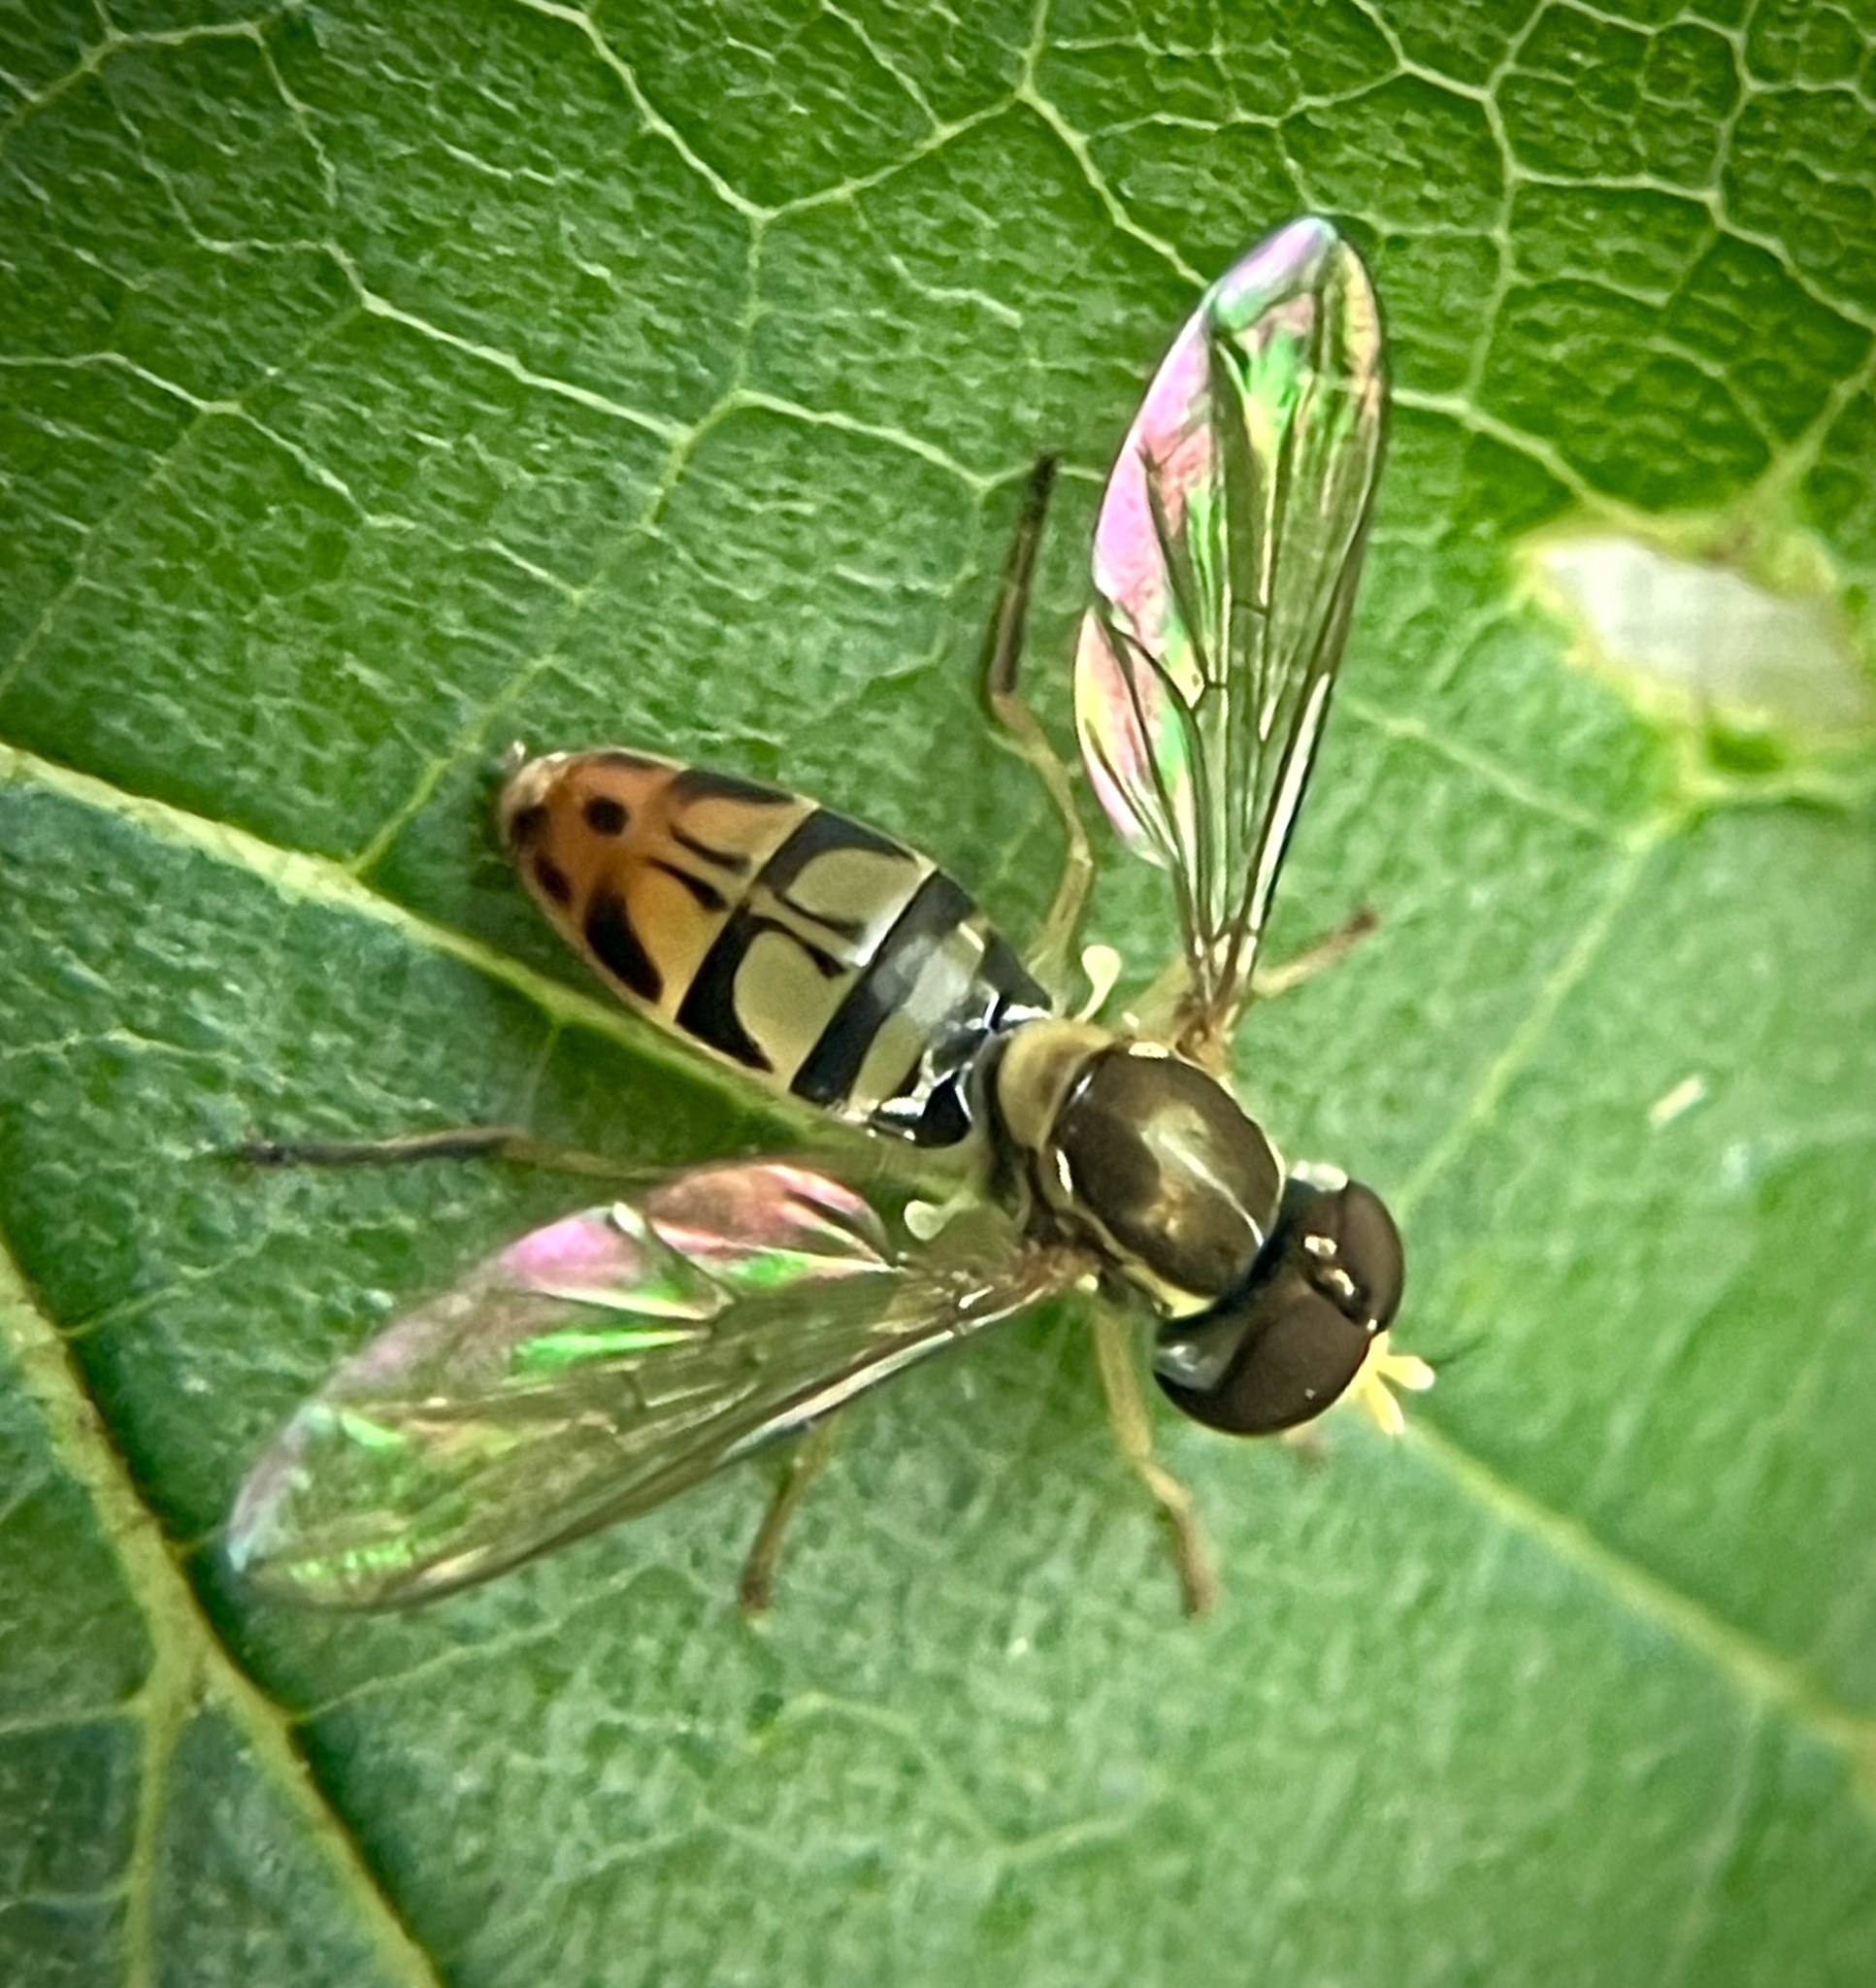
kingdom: Animalia
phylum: Arthropoda
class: Insecta
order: Diptera
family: Syrphidae
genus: Toxomerus
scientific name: Toxomerus marginatus
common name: Syrphid fly
